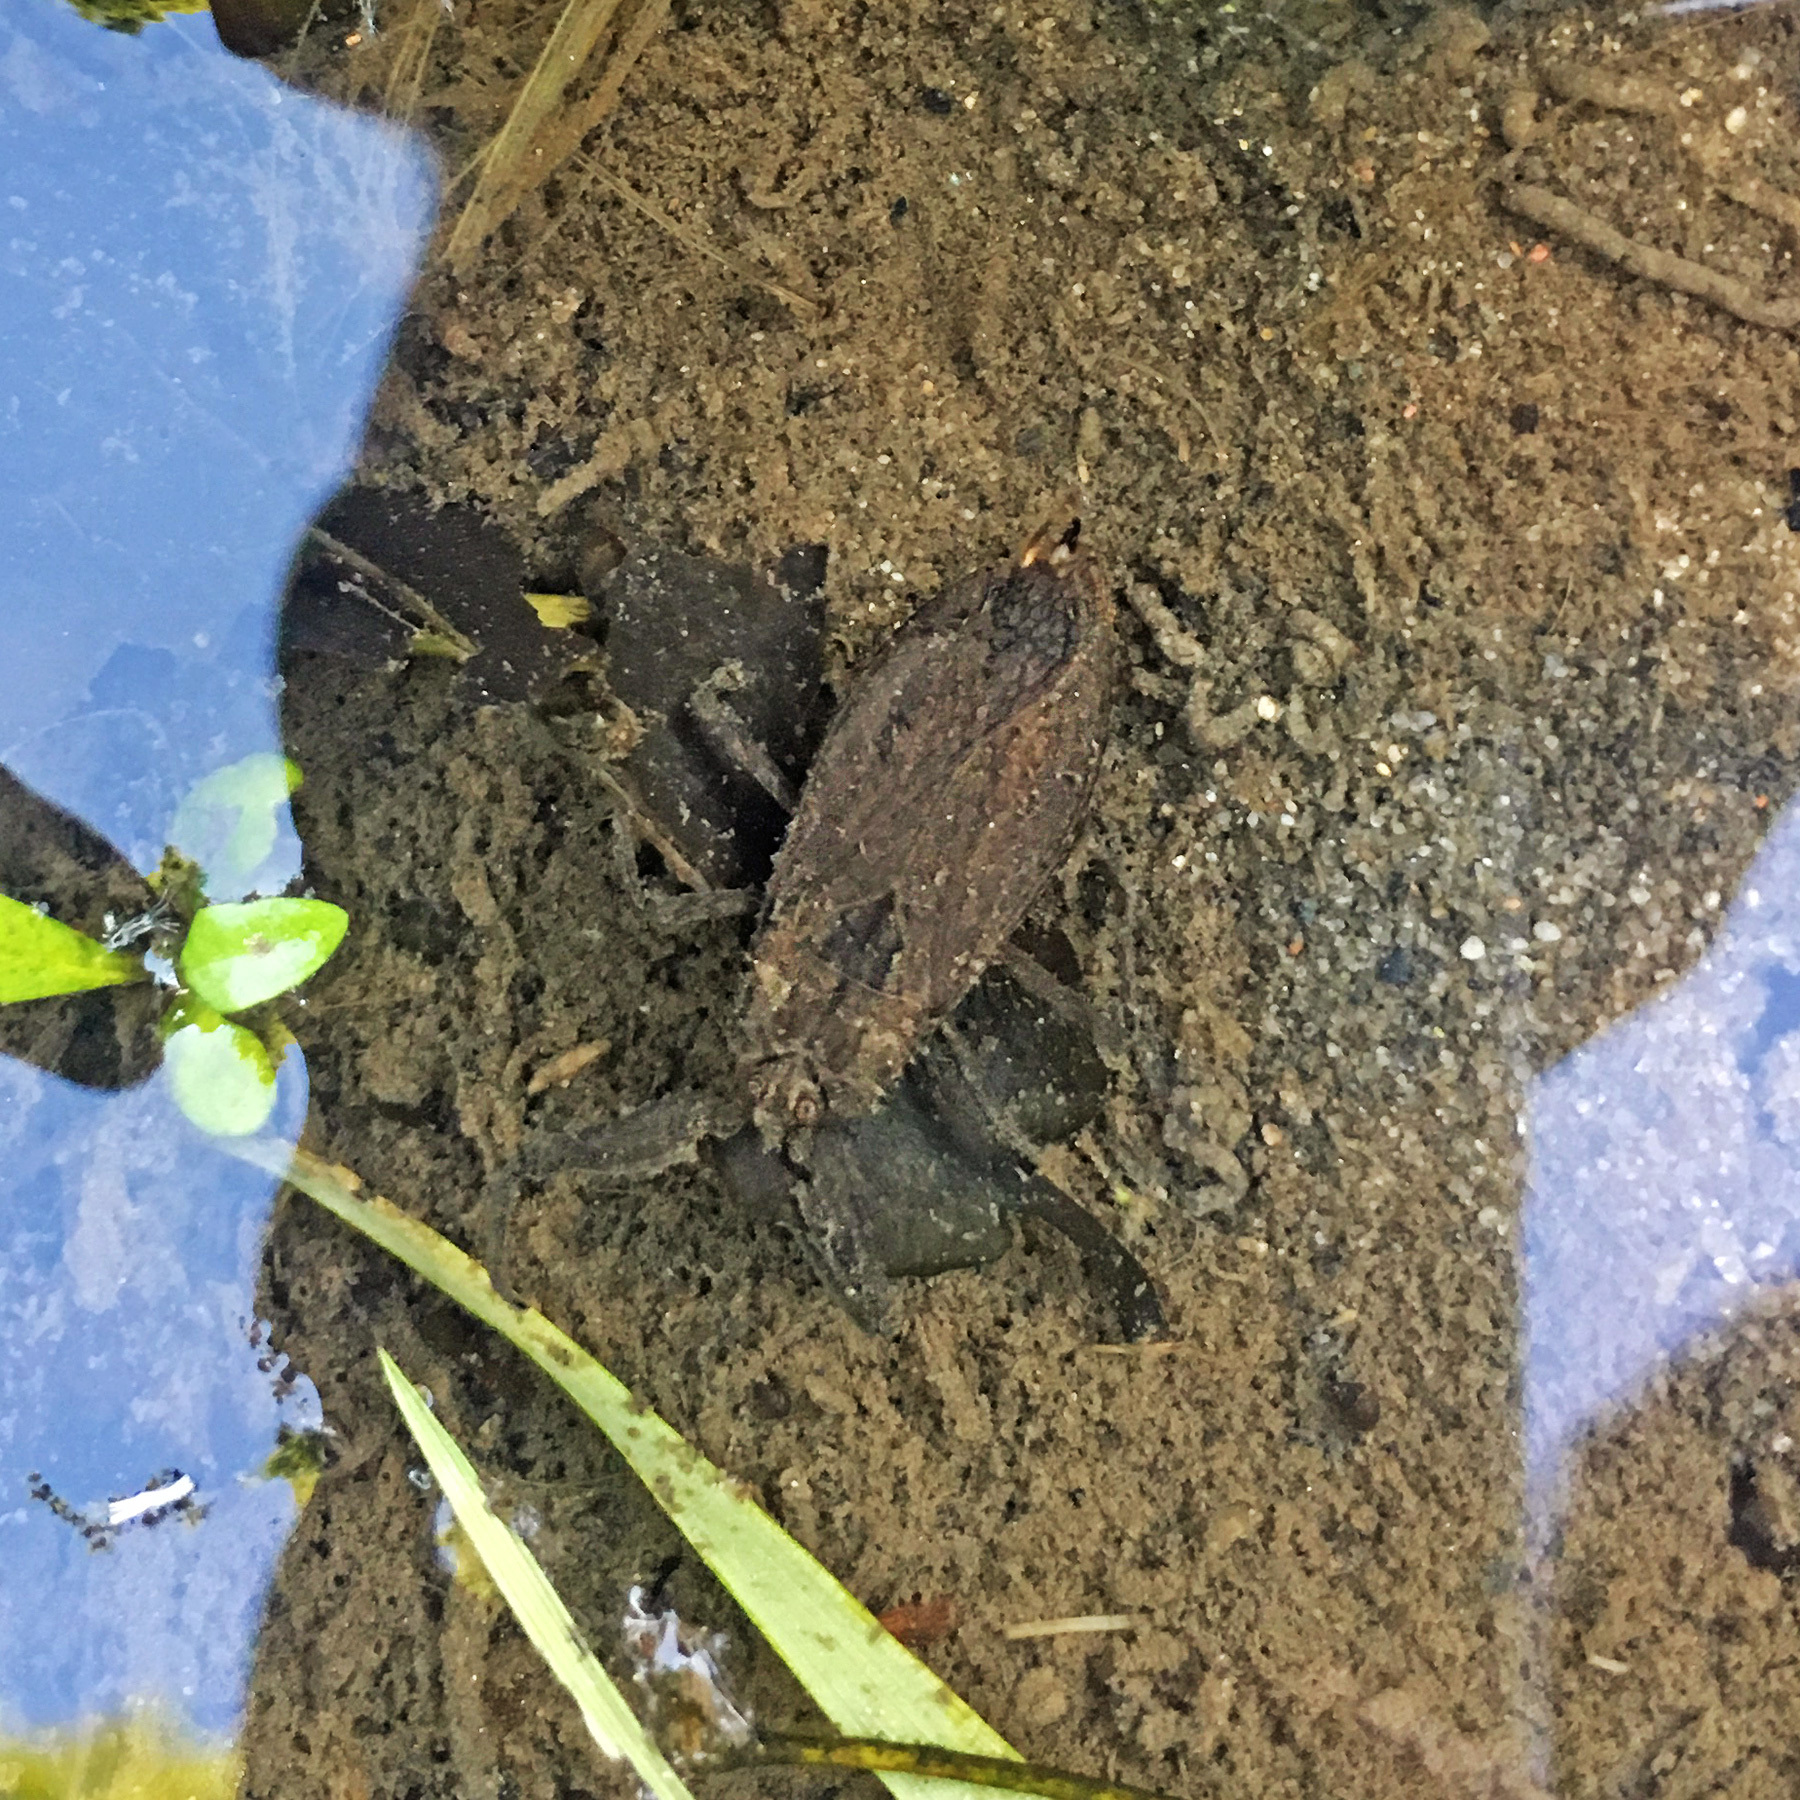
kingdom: Animalia
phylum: Arthropoda
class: Insecta
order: Hemiptera
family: Nepidae
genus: Nepa
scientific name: Nepa cinerea
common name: Water scorpion
